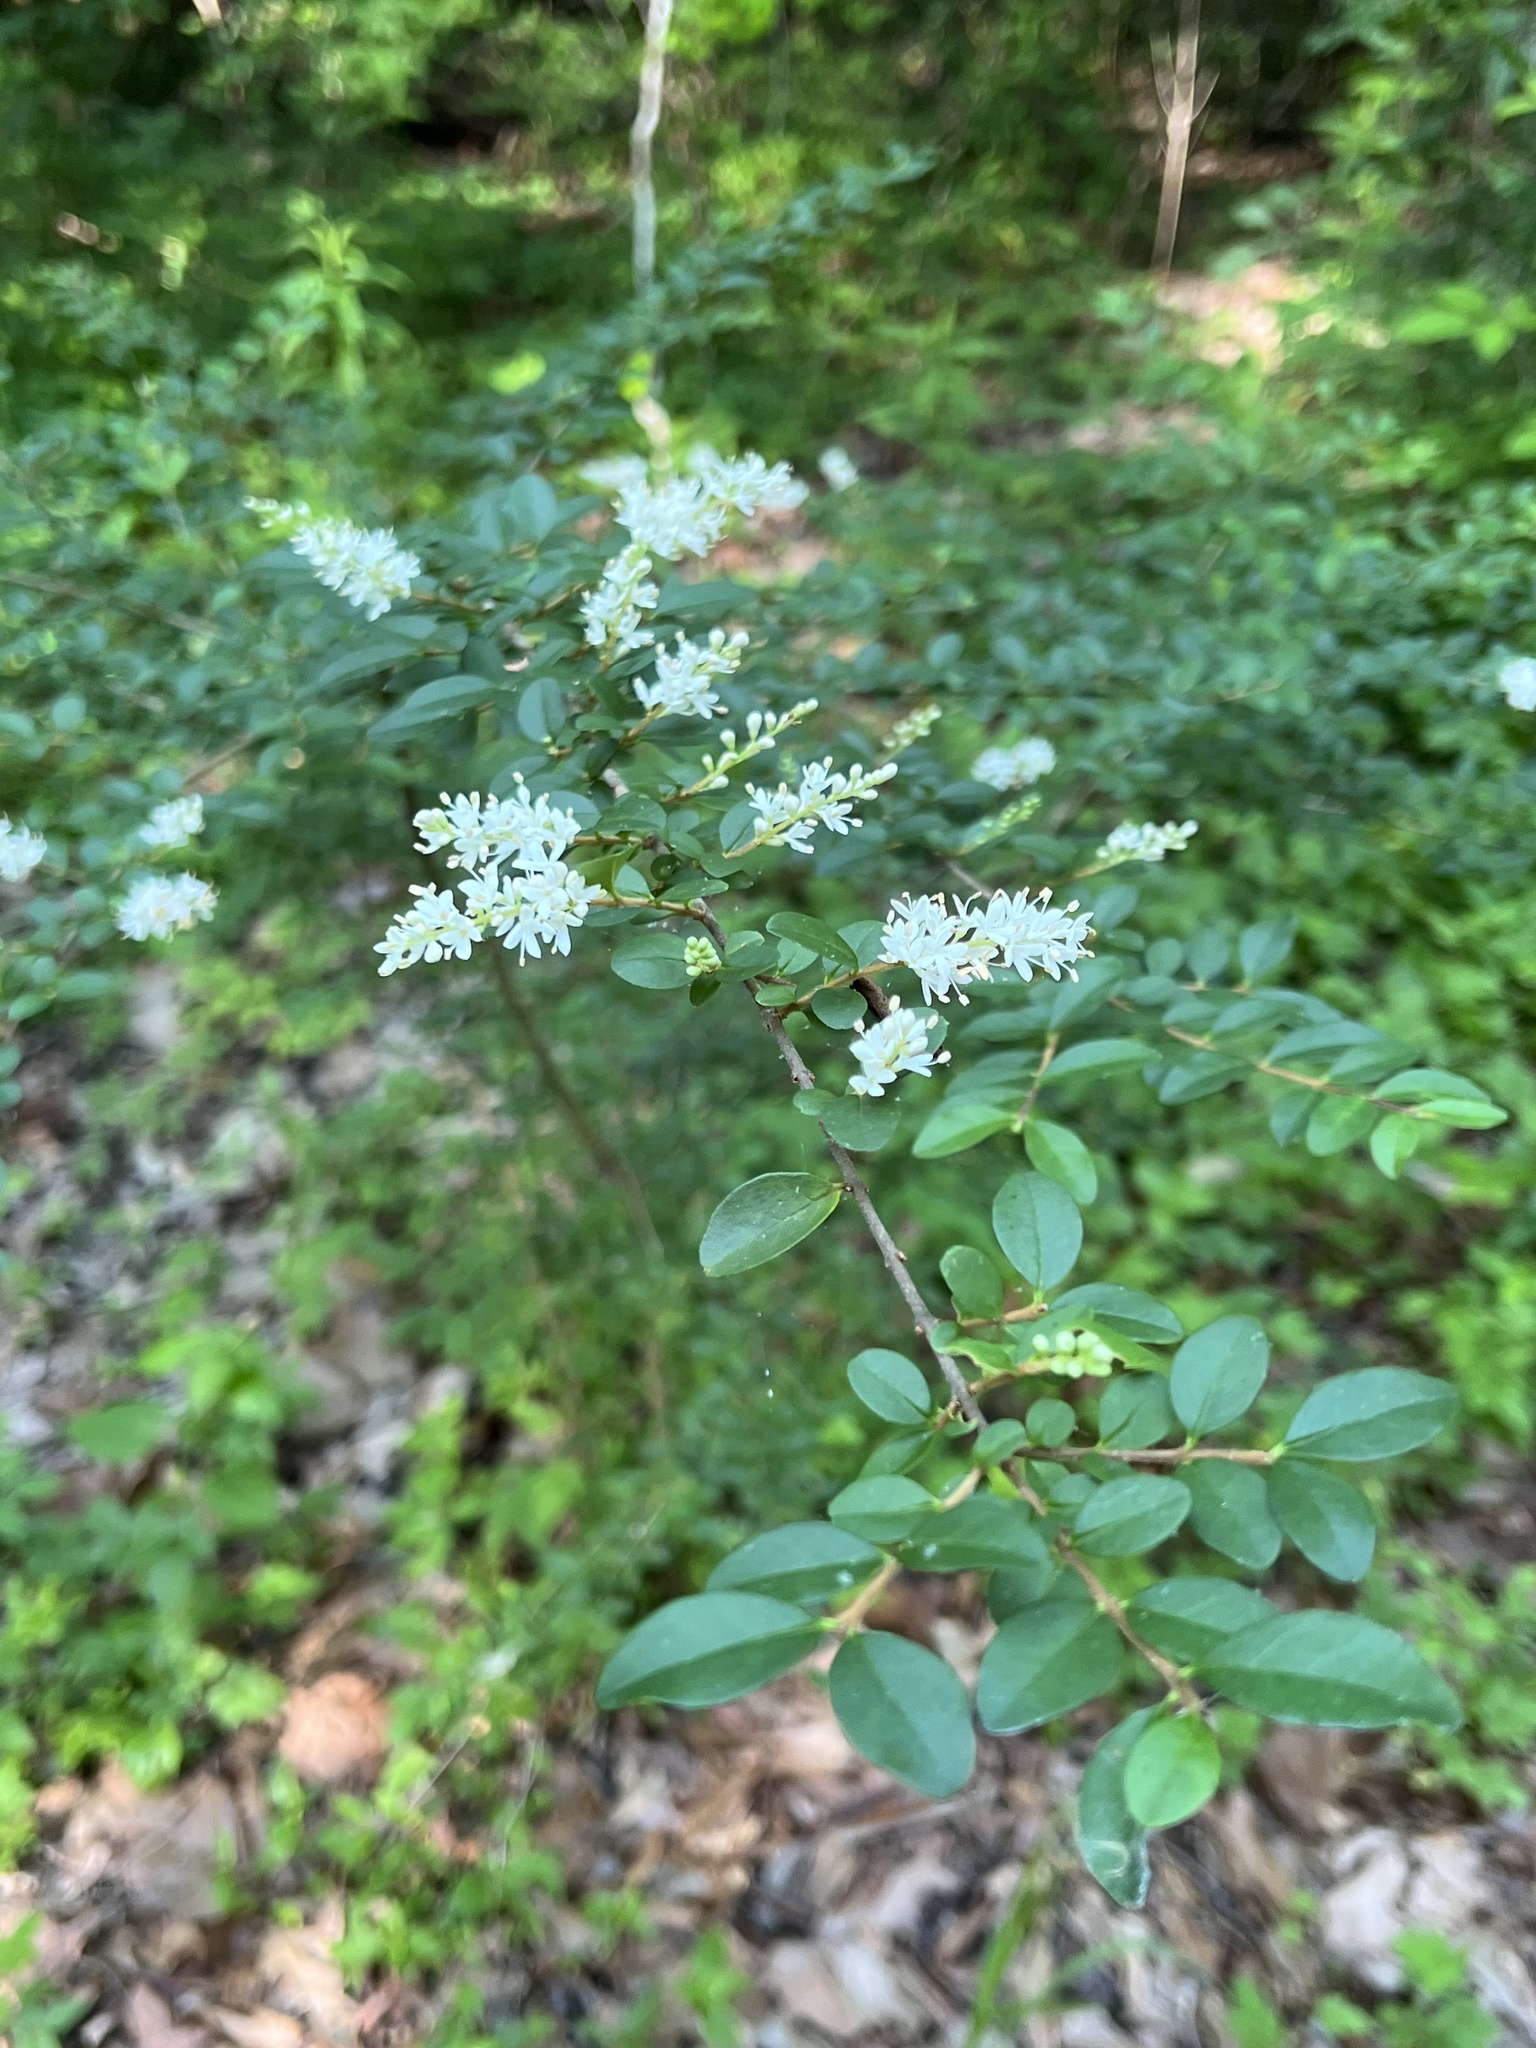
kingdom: Plantae
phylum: Tracheophyta
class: Magnoliopsida
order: Lamiales
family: Oleaceae
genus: Ligustrum
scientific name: Ligustrum sinense
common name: Chinese privet
